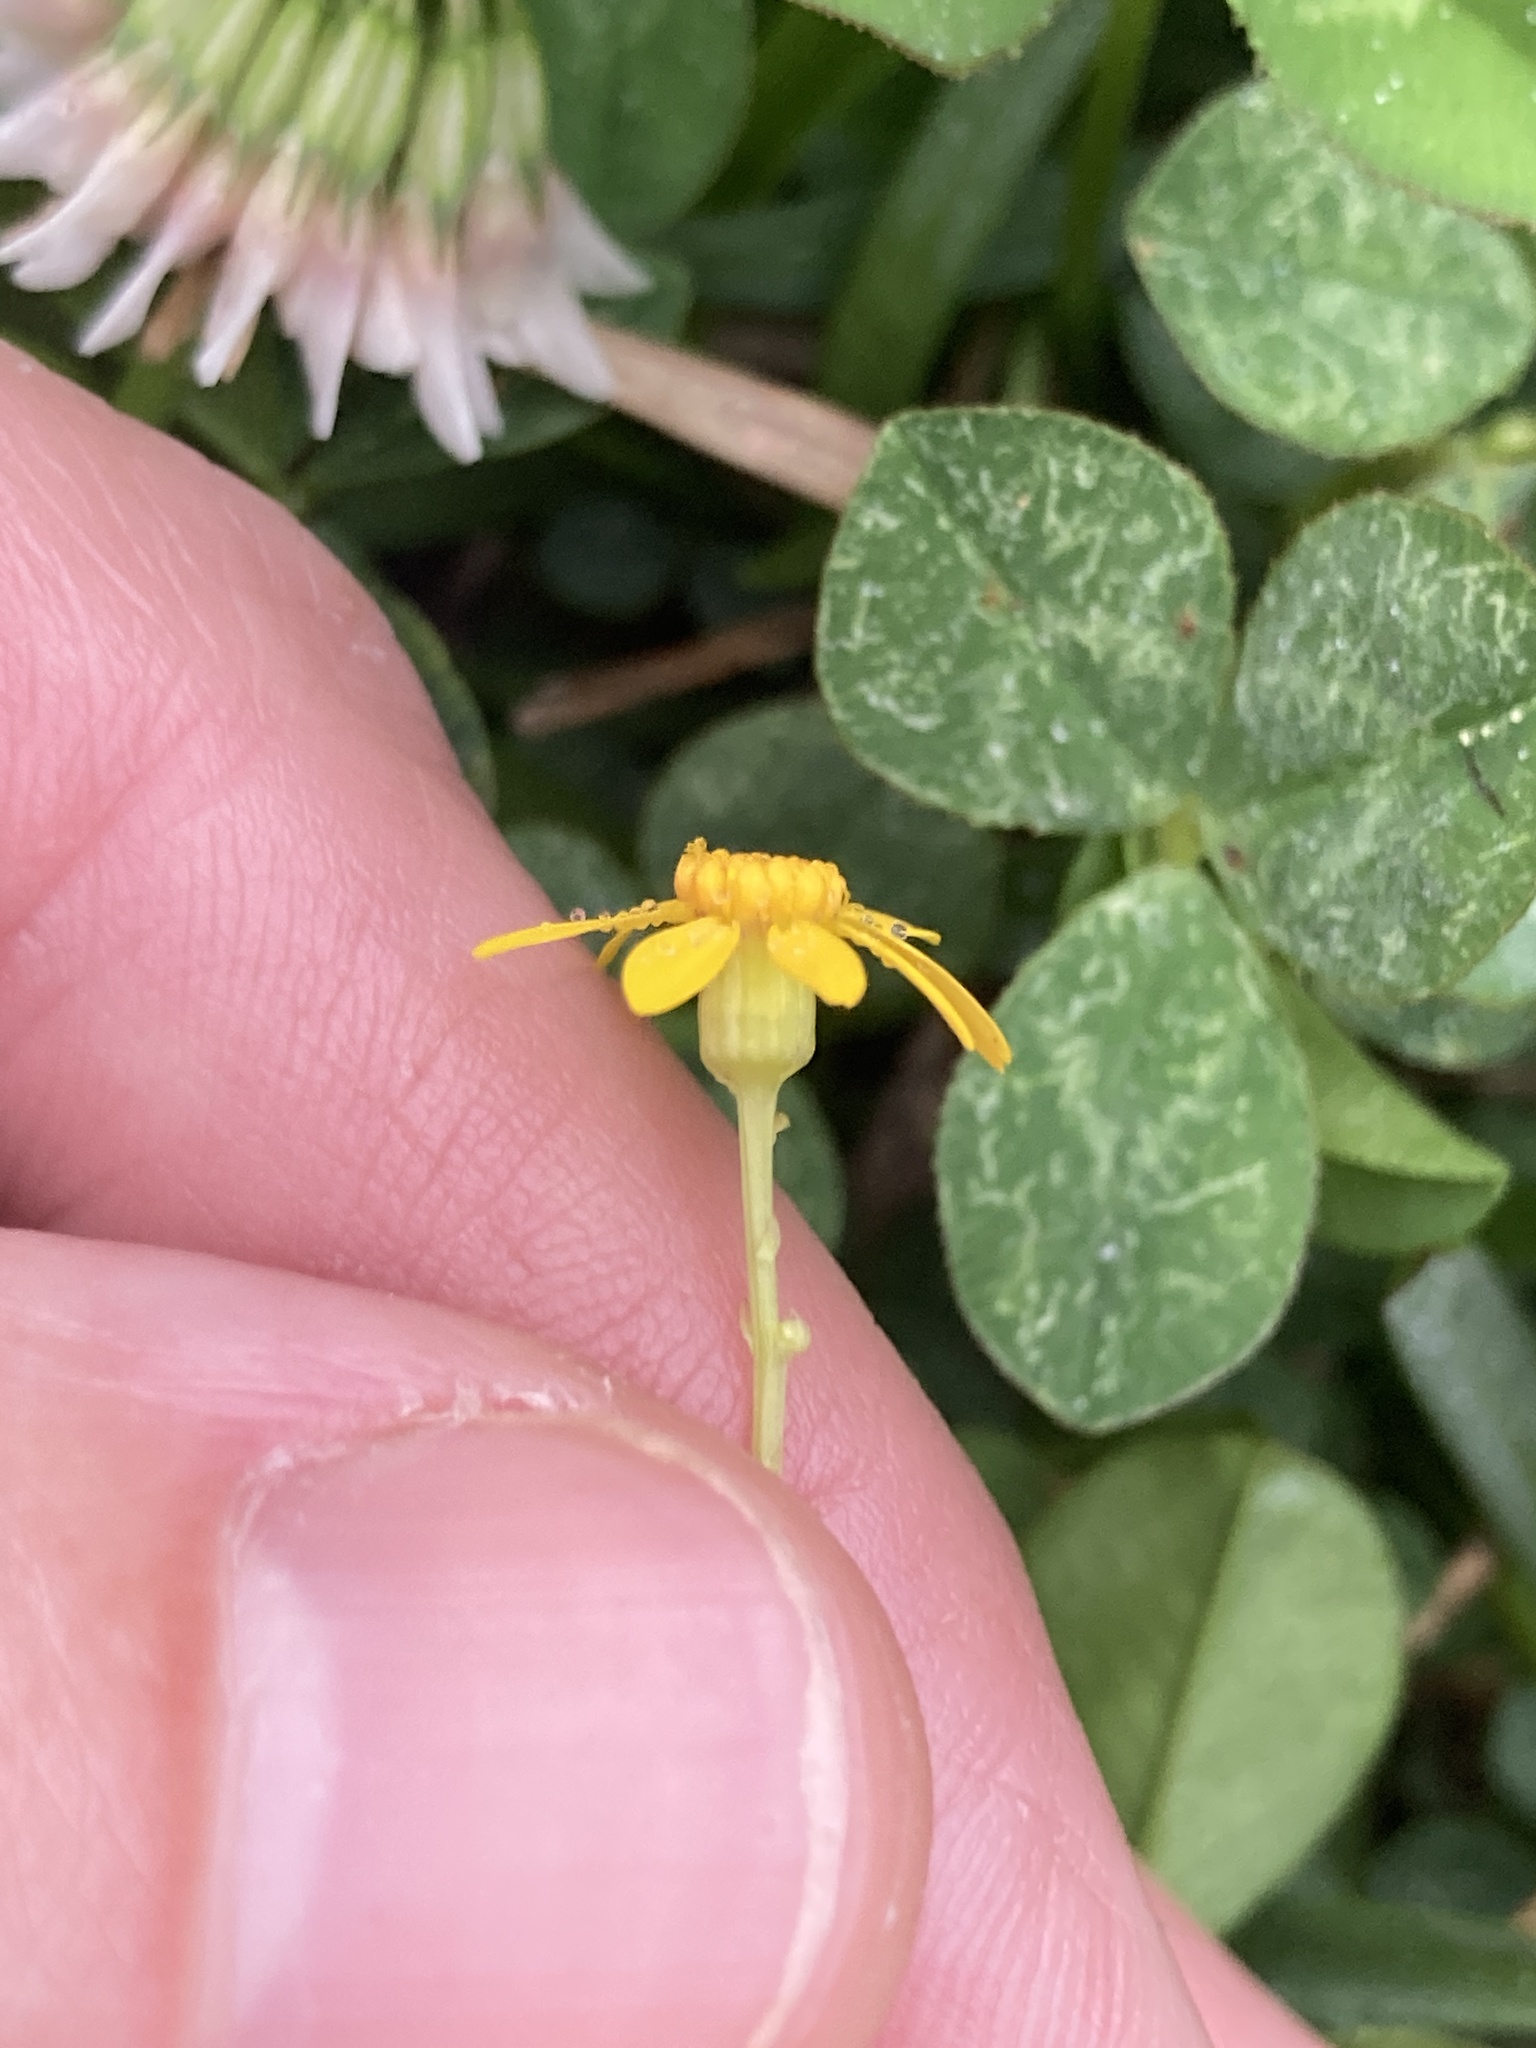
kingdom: Plantae
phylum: Tracheophyta
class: Magnoliopsida
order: Asterales
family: Asteraceae
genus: Packera
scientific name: Packera glabella
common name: Butterweed
